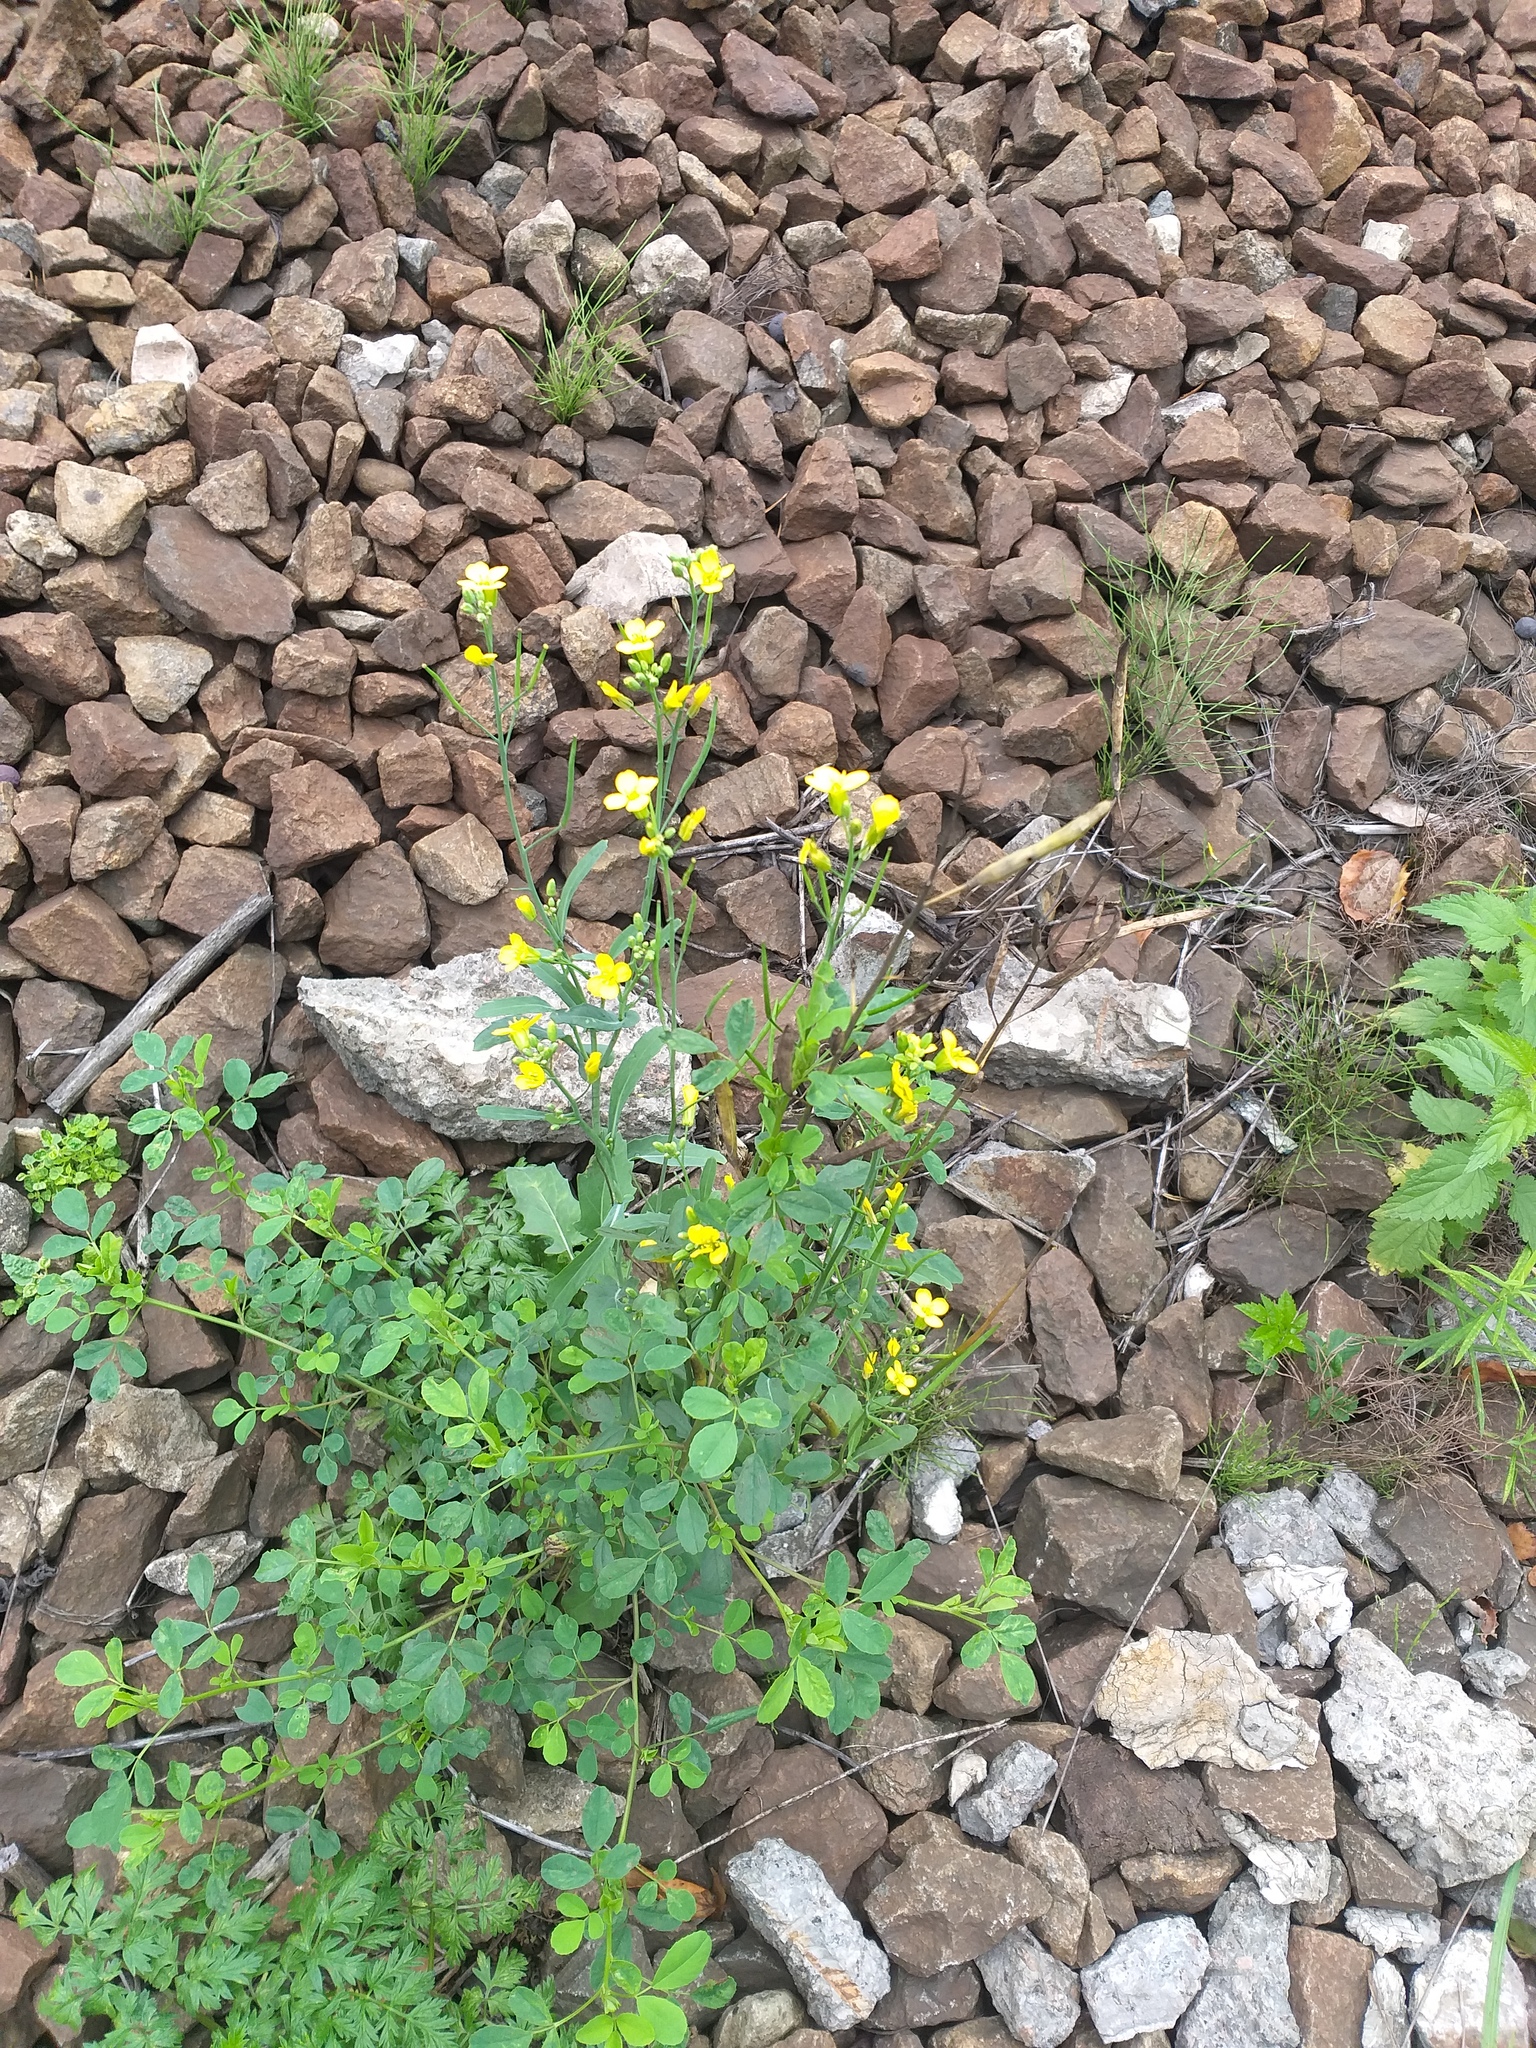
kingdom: Plantae
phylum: Tracheophyta
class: Magnoliopsida
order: Brassicales
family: Brassicaceae
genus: Brassica
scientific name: Brassica napus
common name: Rape
